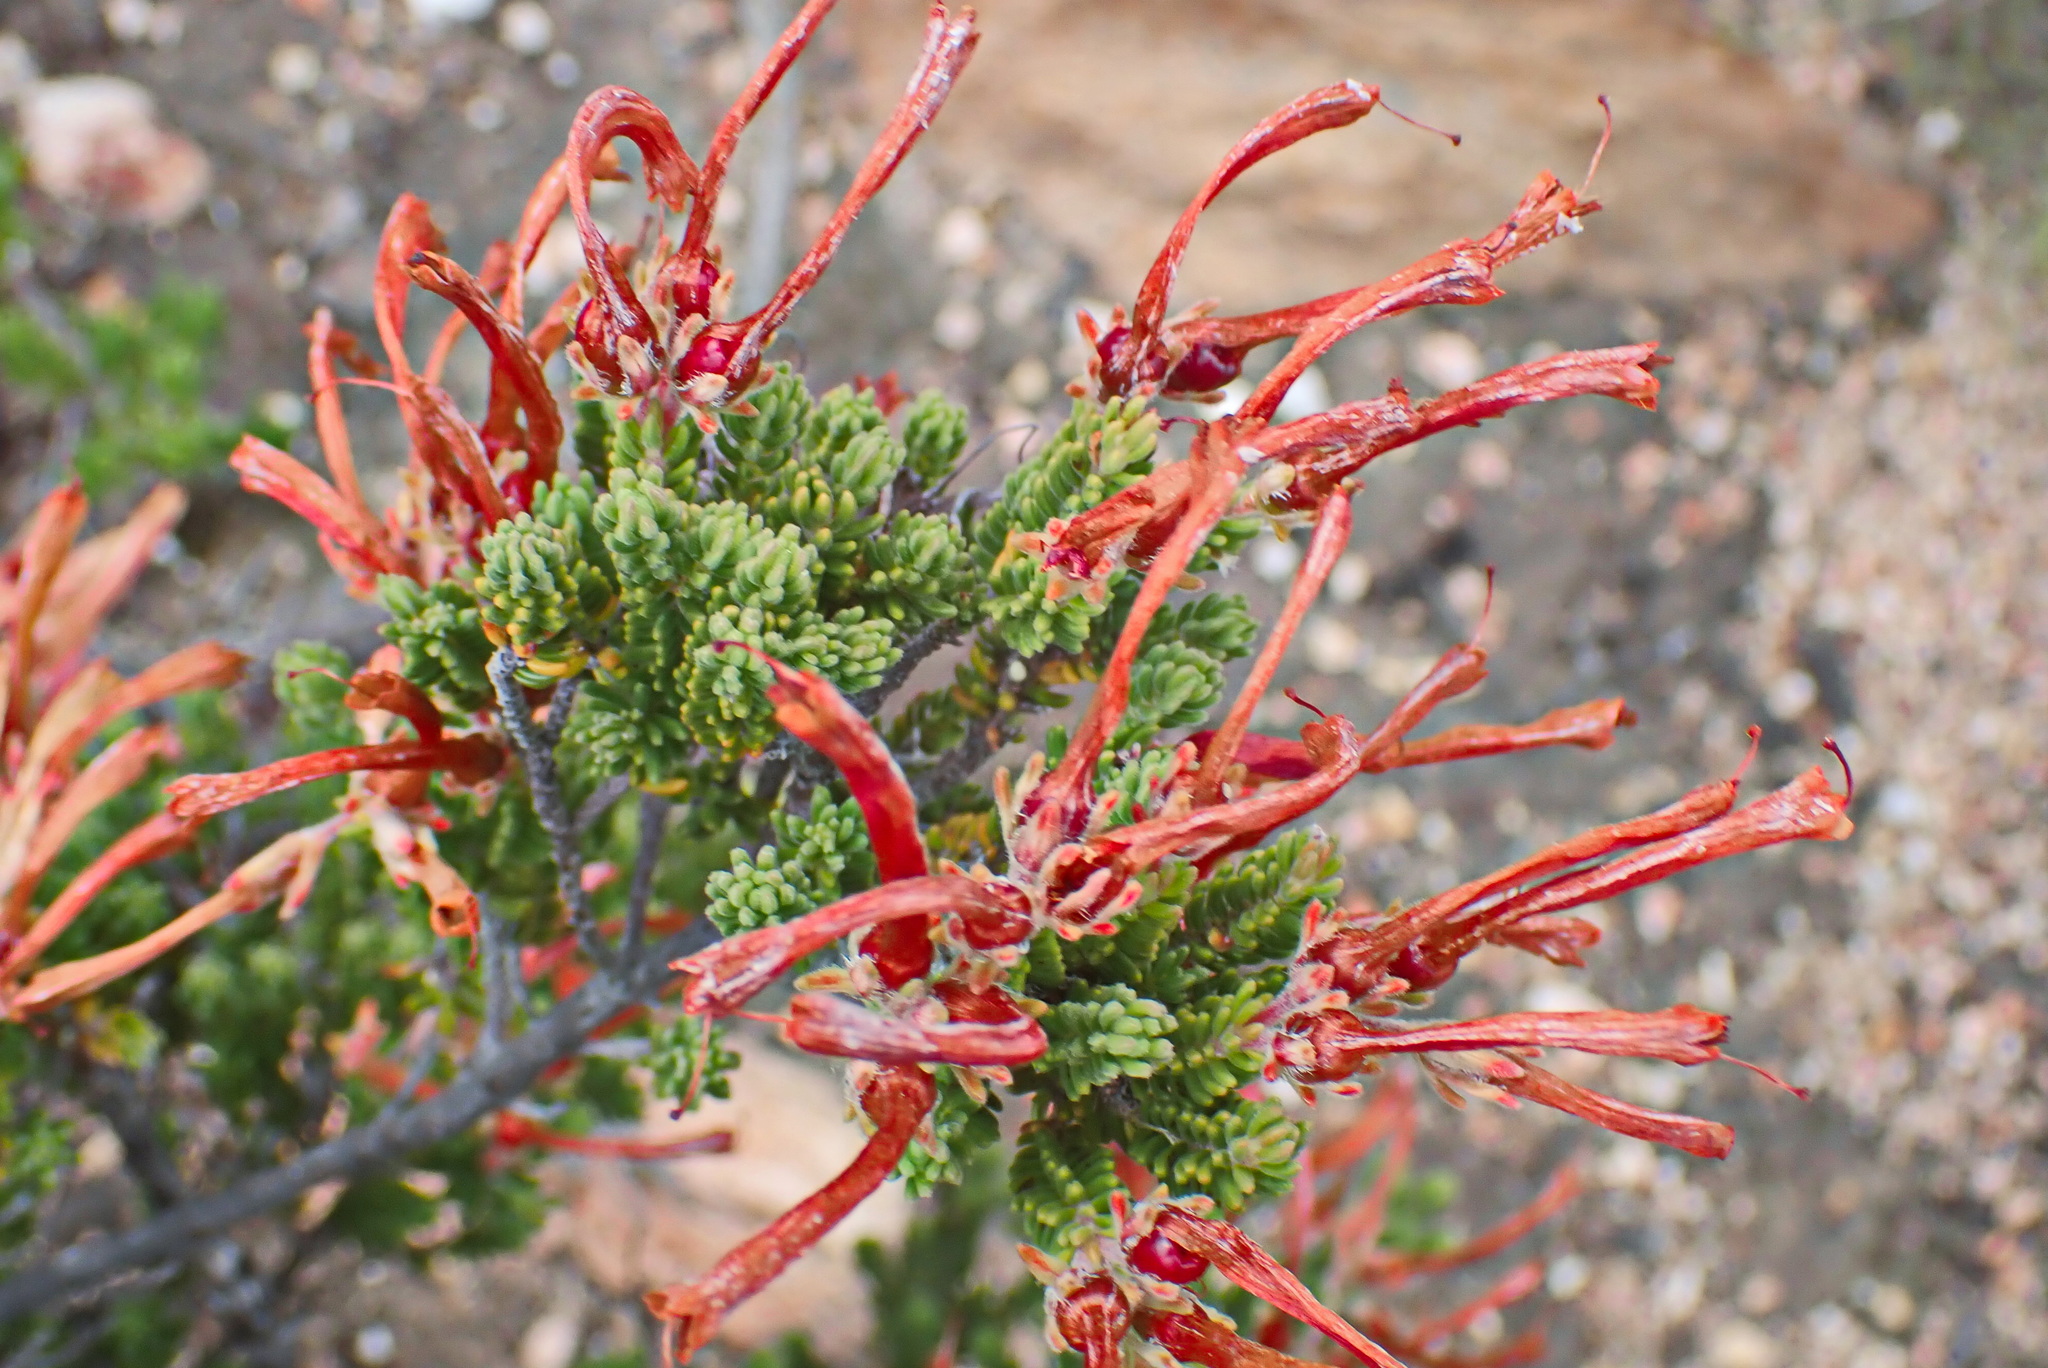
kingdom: Plantae
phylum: Tracheophyta
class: Magnoliopsida
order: Ericales
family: Ericaceae
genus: Erica
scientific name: Erica discolor
